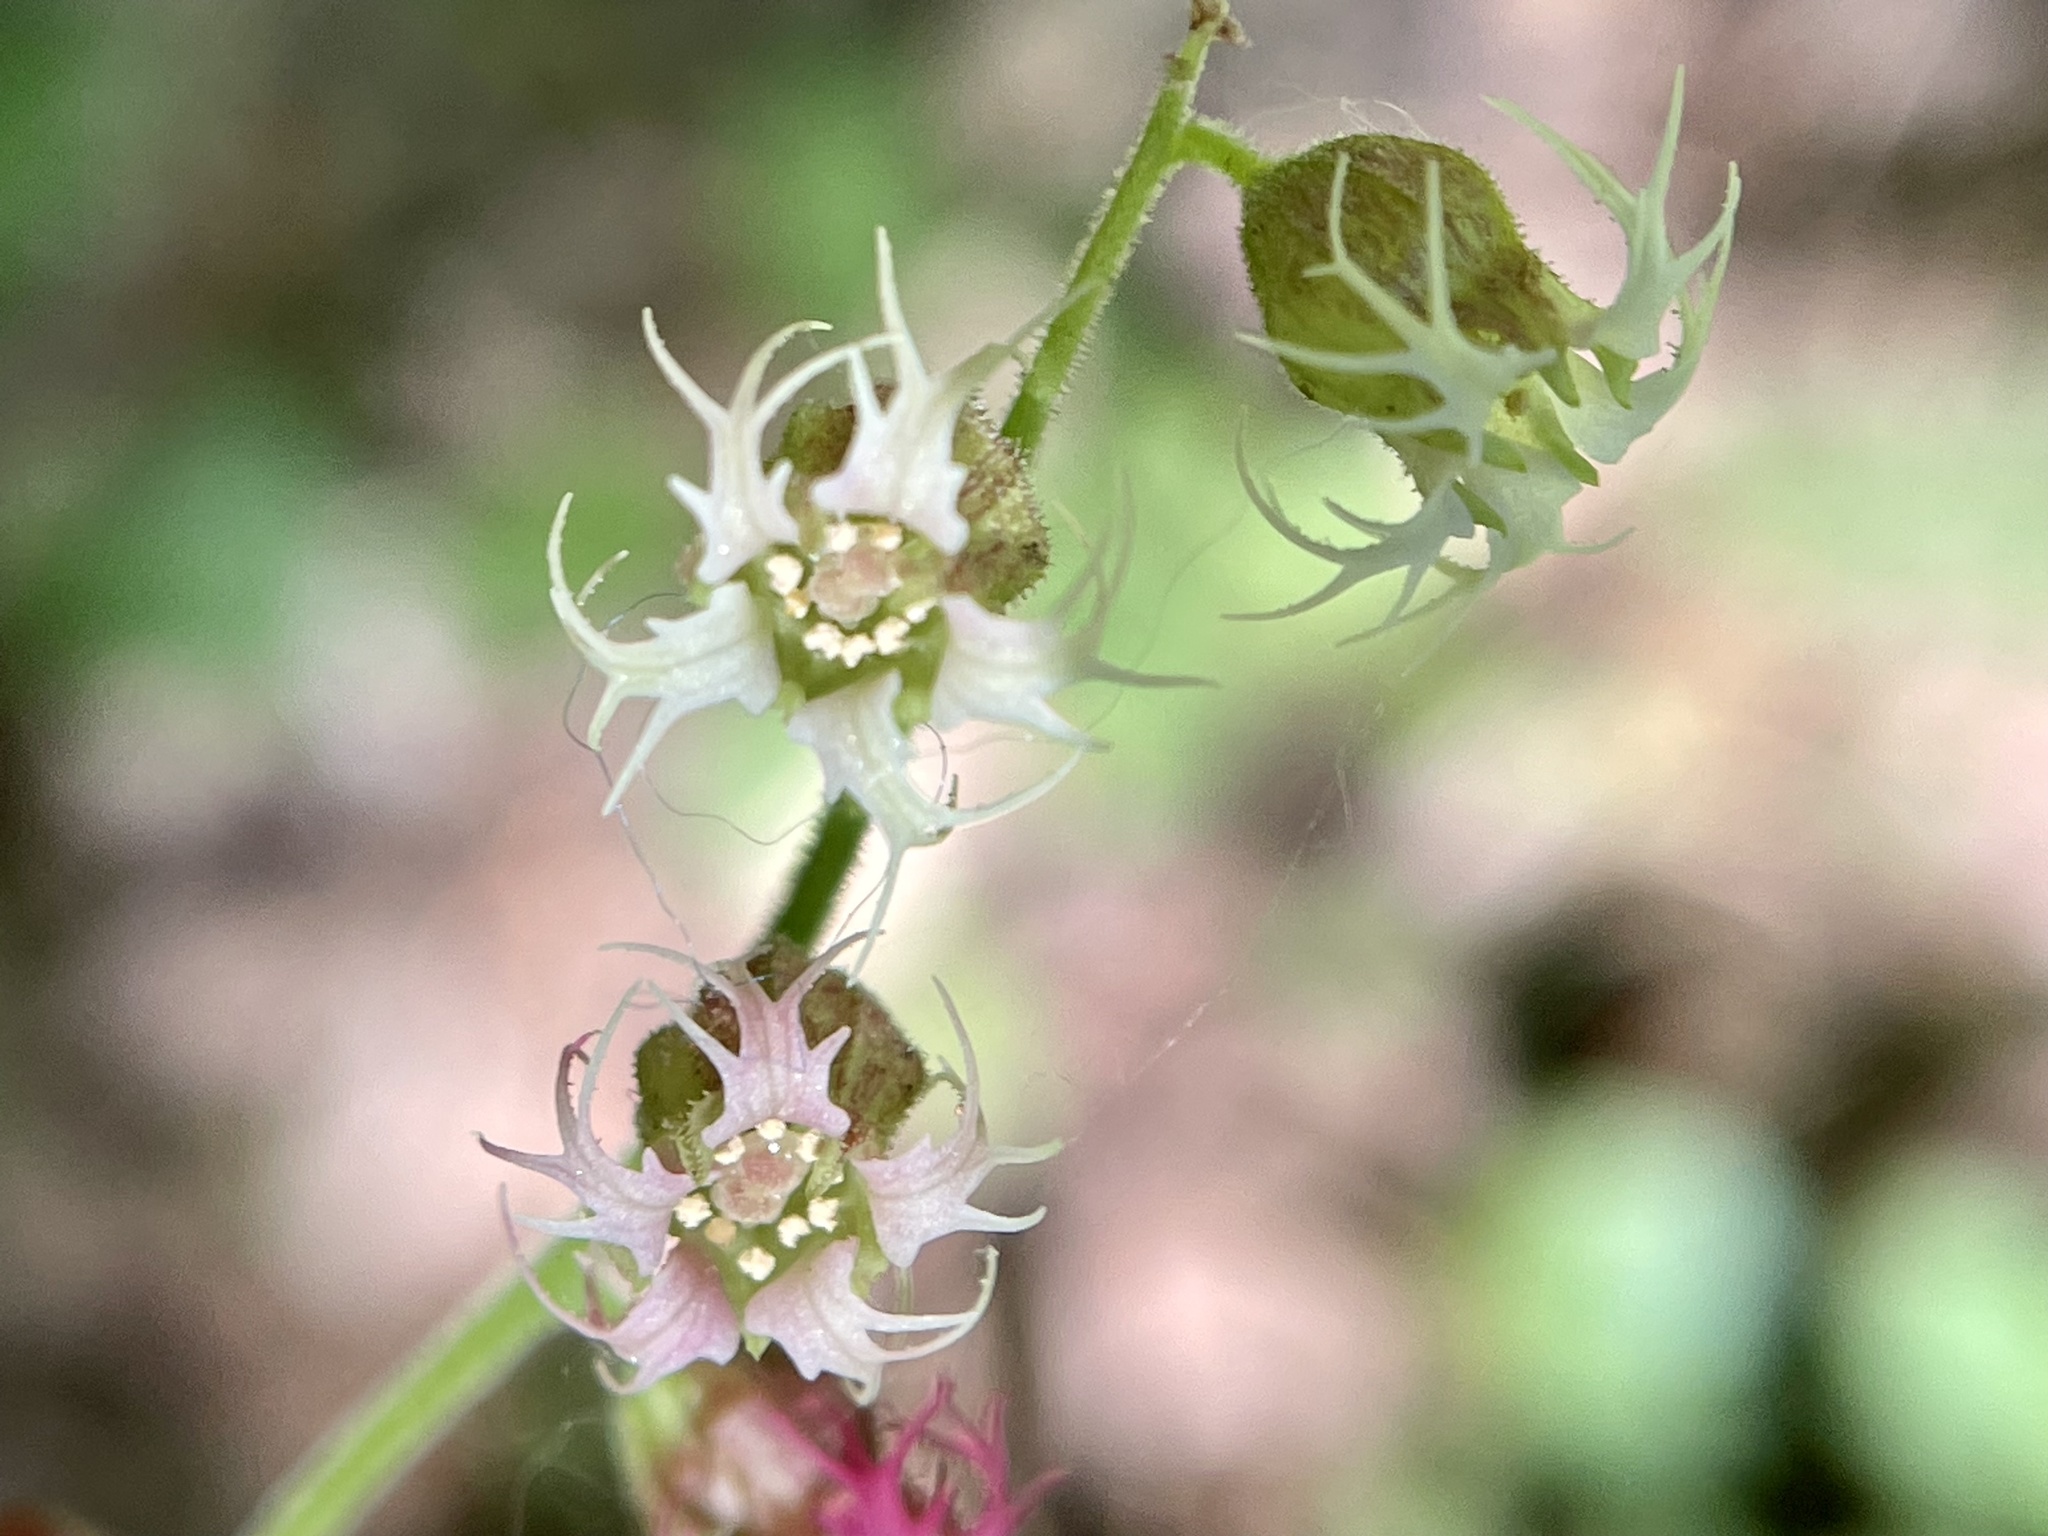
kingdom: Plantae
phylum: Tracheophyta
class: Magnoliopsida
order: Saxifragales
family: Saxifragaceae
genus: Tellima
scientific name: Tellima grandiflora
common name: Fringecups
